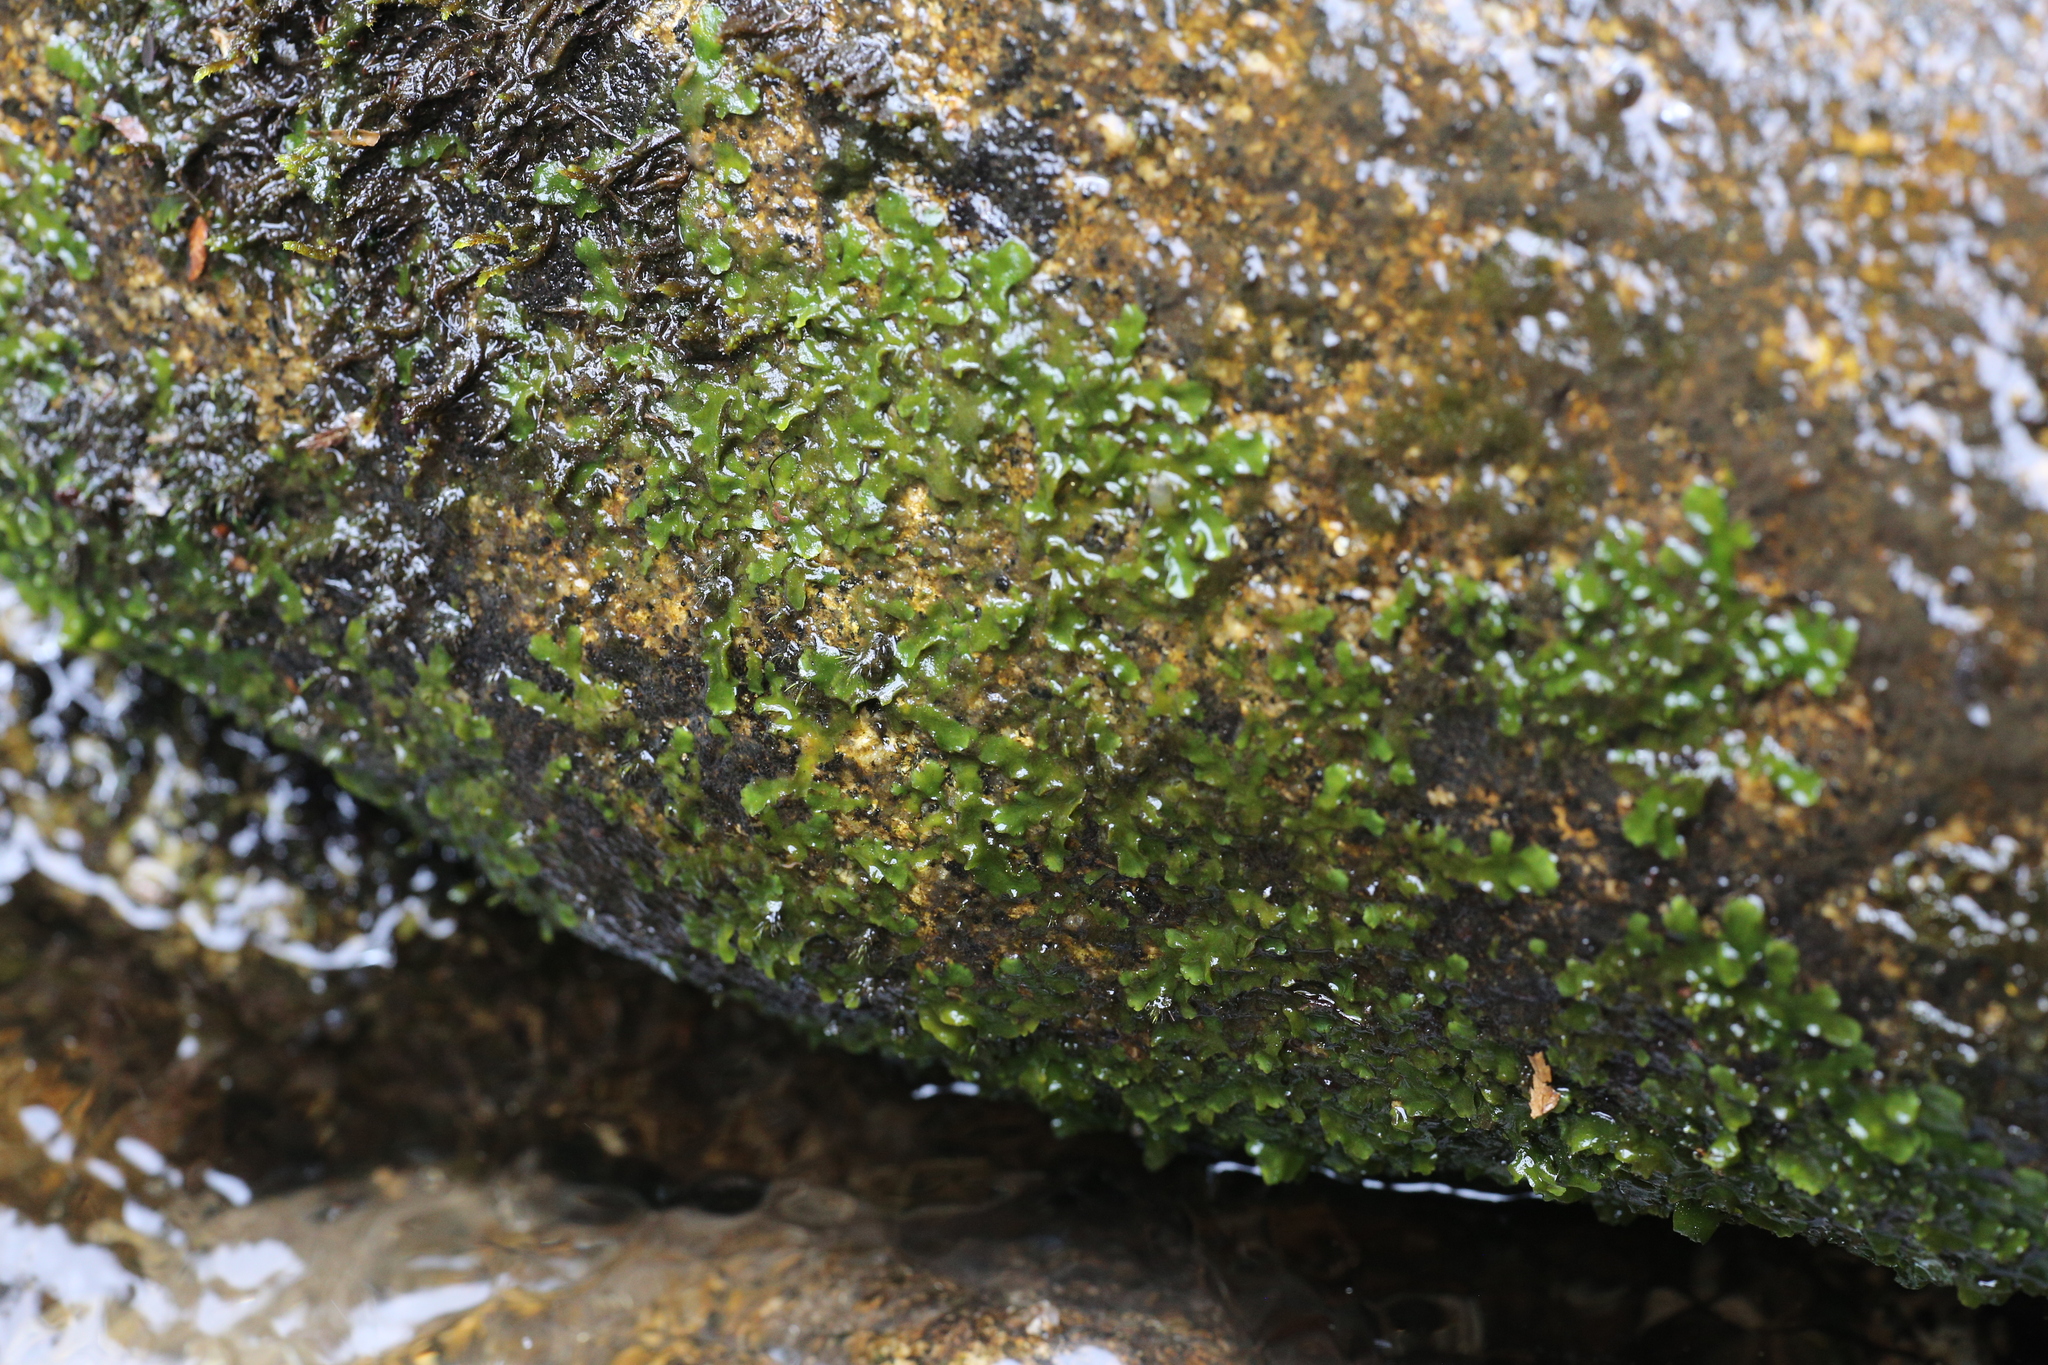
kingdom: Plantae
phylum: Marchantiophyta
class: Jungermanniopsida
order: Metzgeriales
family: Aneuraceae
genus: Lobatiriccardia
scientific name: Lobatiriccardia alterniloba
